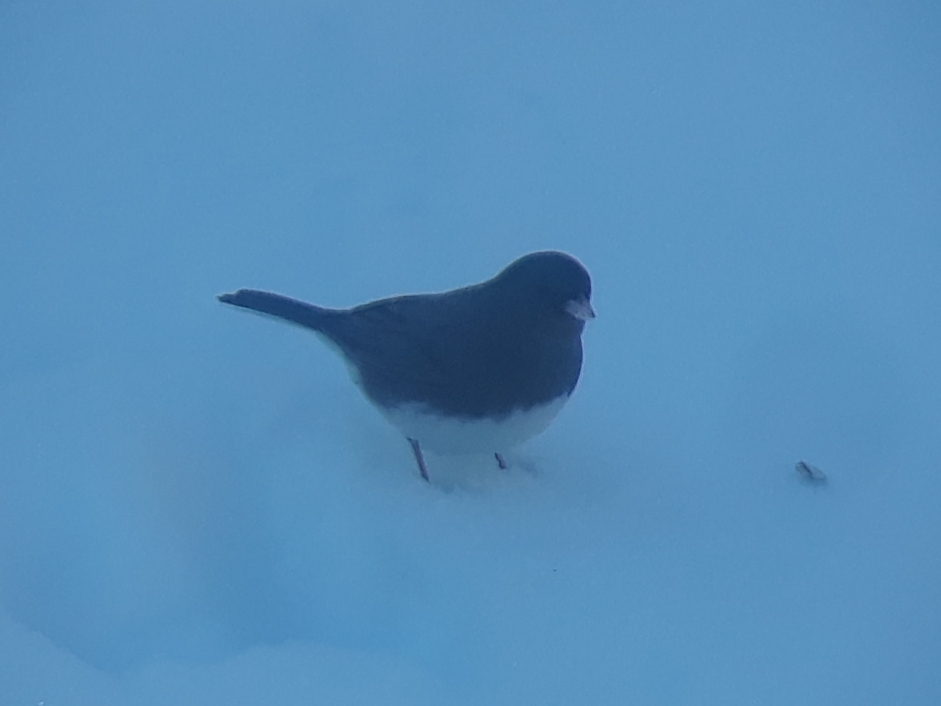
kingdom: Animalia
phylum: Chordata
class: Aves
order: Passeriformes
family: Passerellidae
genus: Junco
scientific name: Junco hyemalis
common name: Dark-eyed junco
